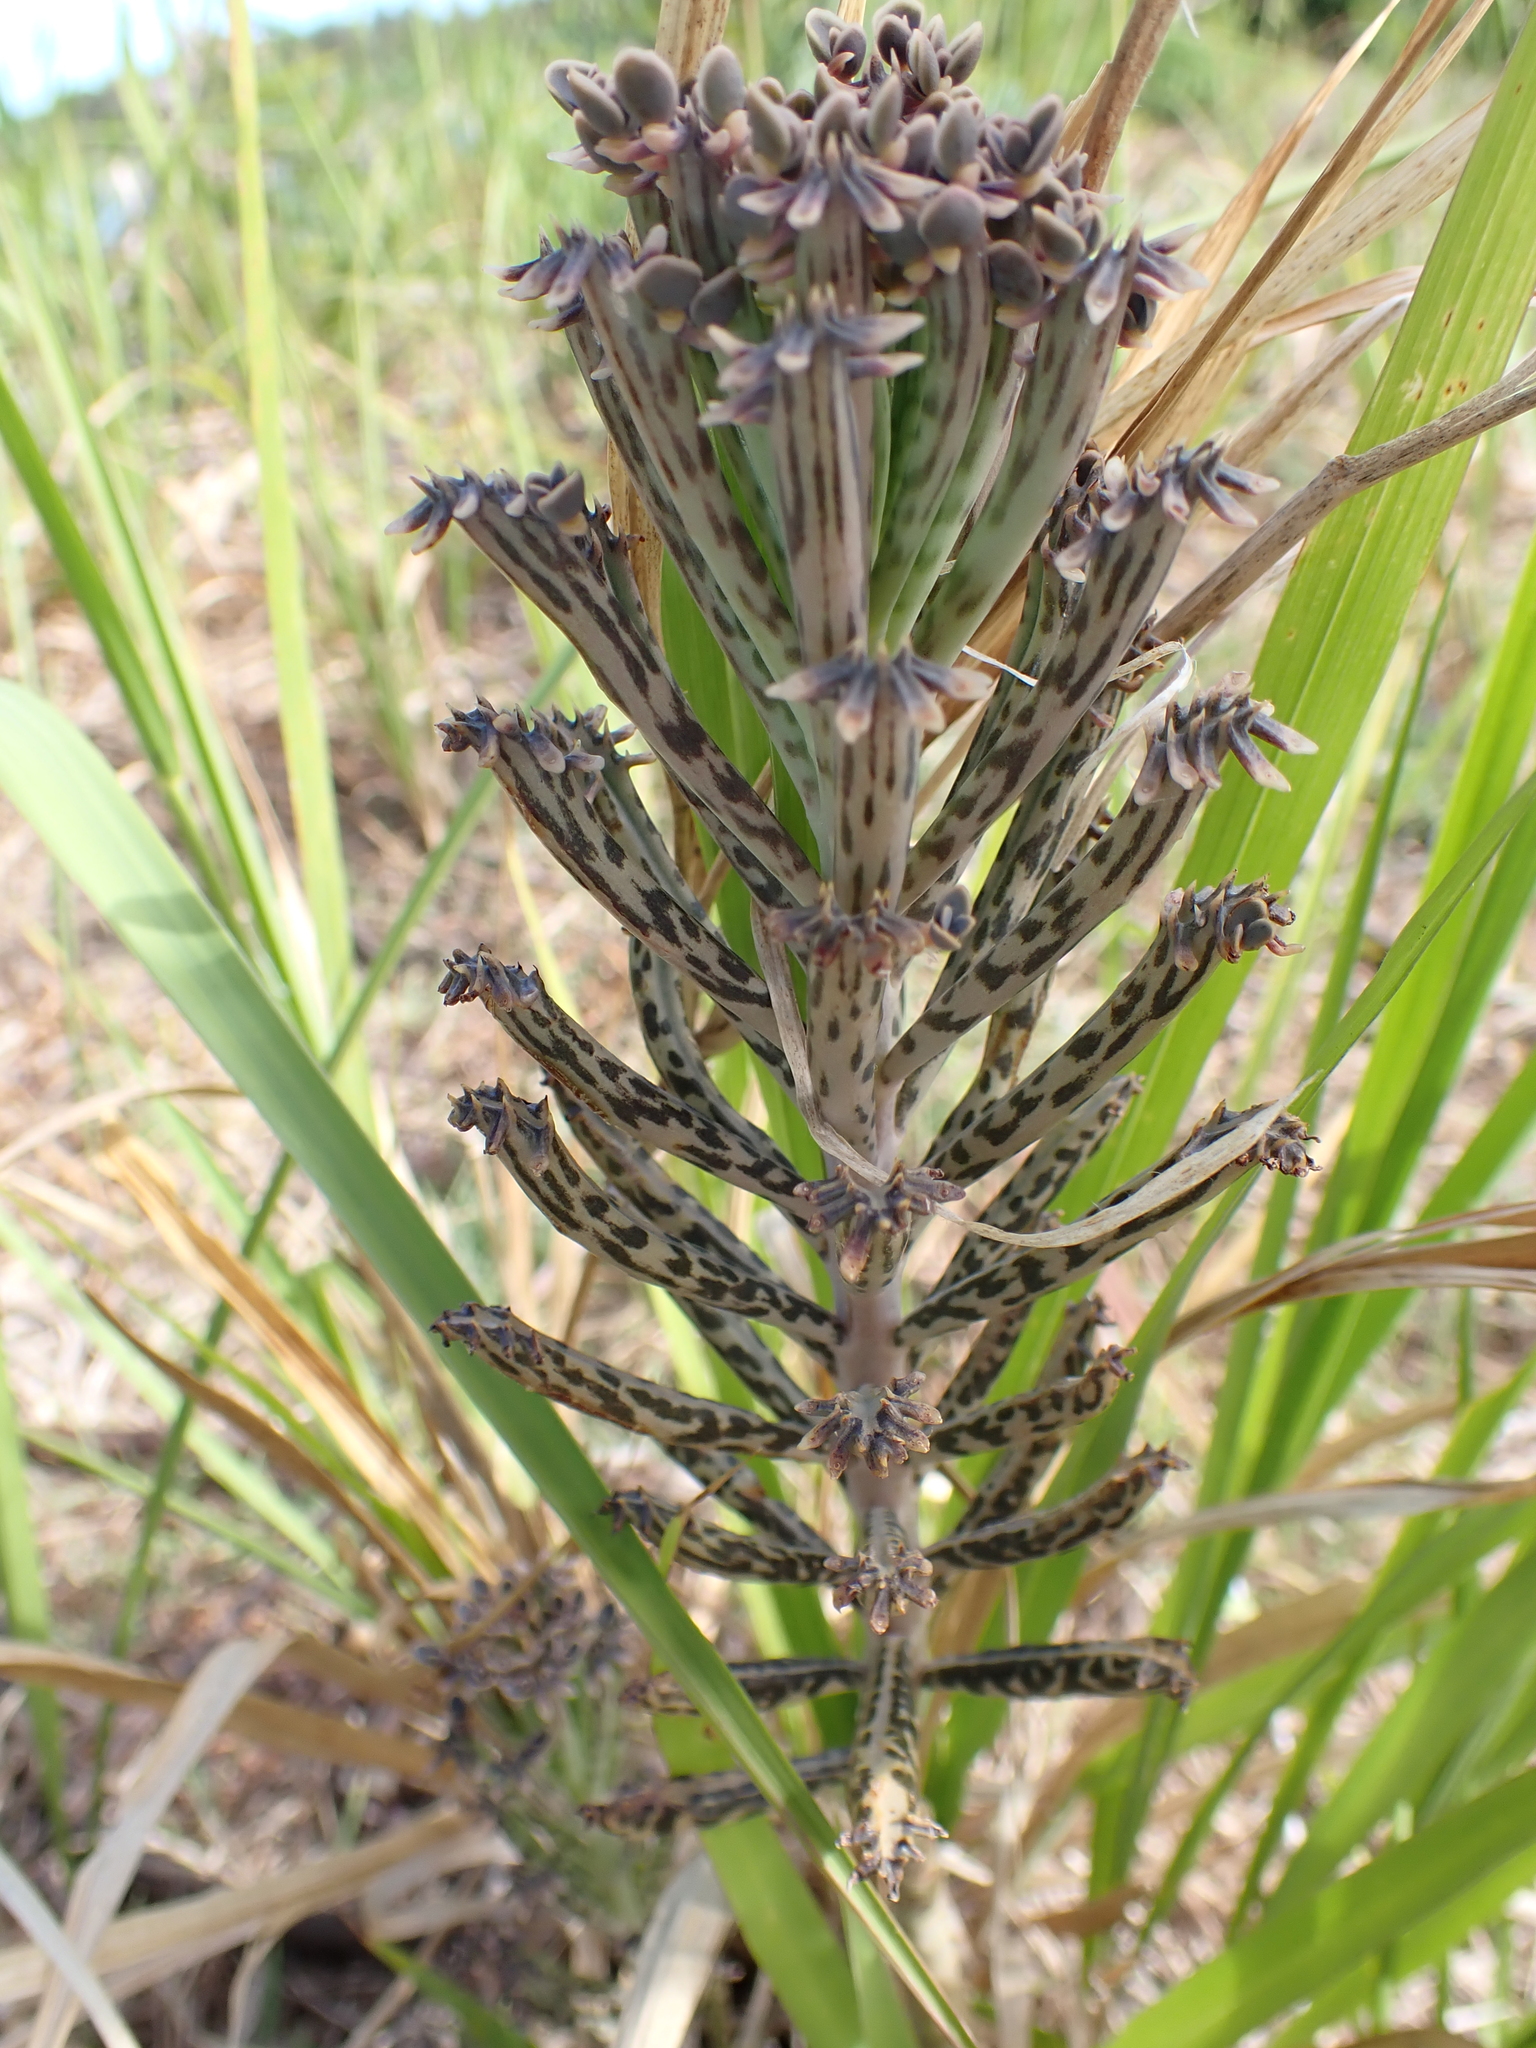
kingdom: Plantae
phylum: Tracheophyta
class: Magnoliopsida
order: Saxifragales
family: Crassulaceae
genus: Kalanchoe
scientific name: Kalanchoe delagoensis
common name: Chandelier plant
